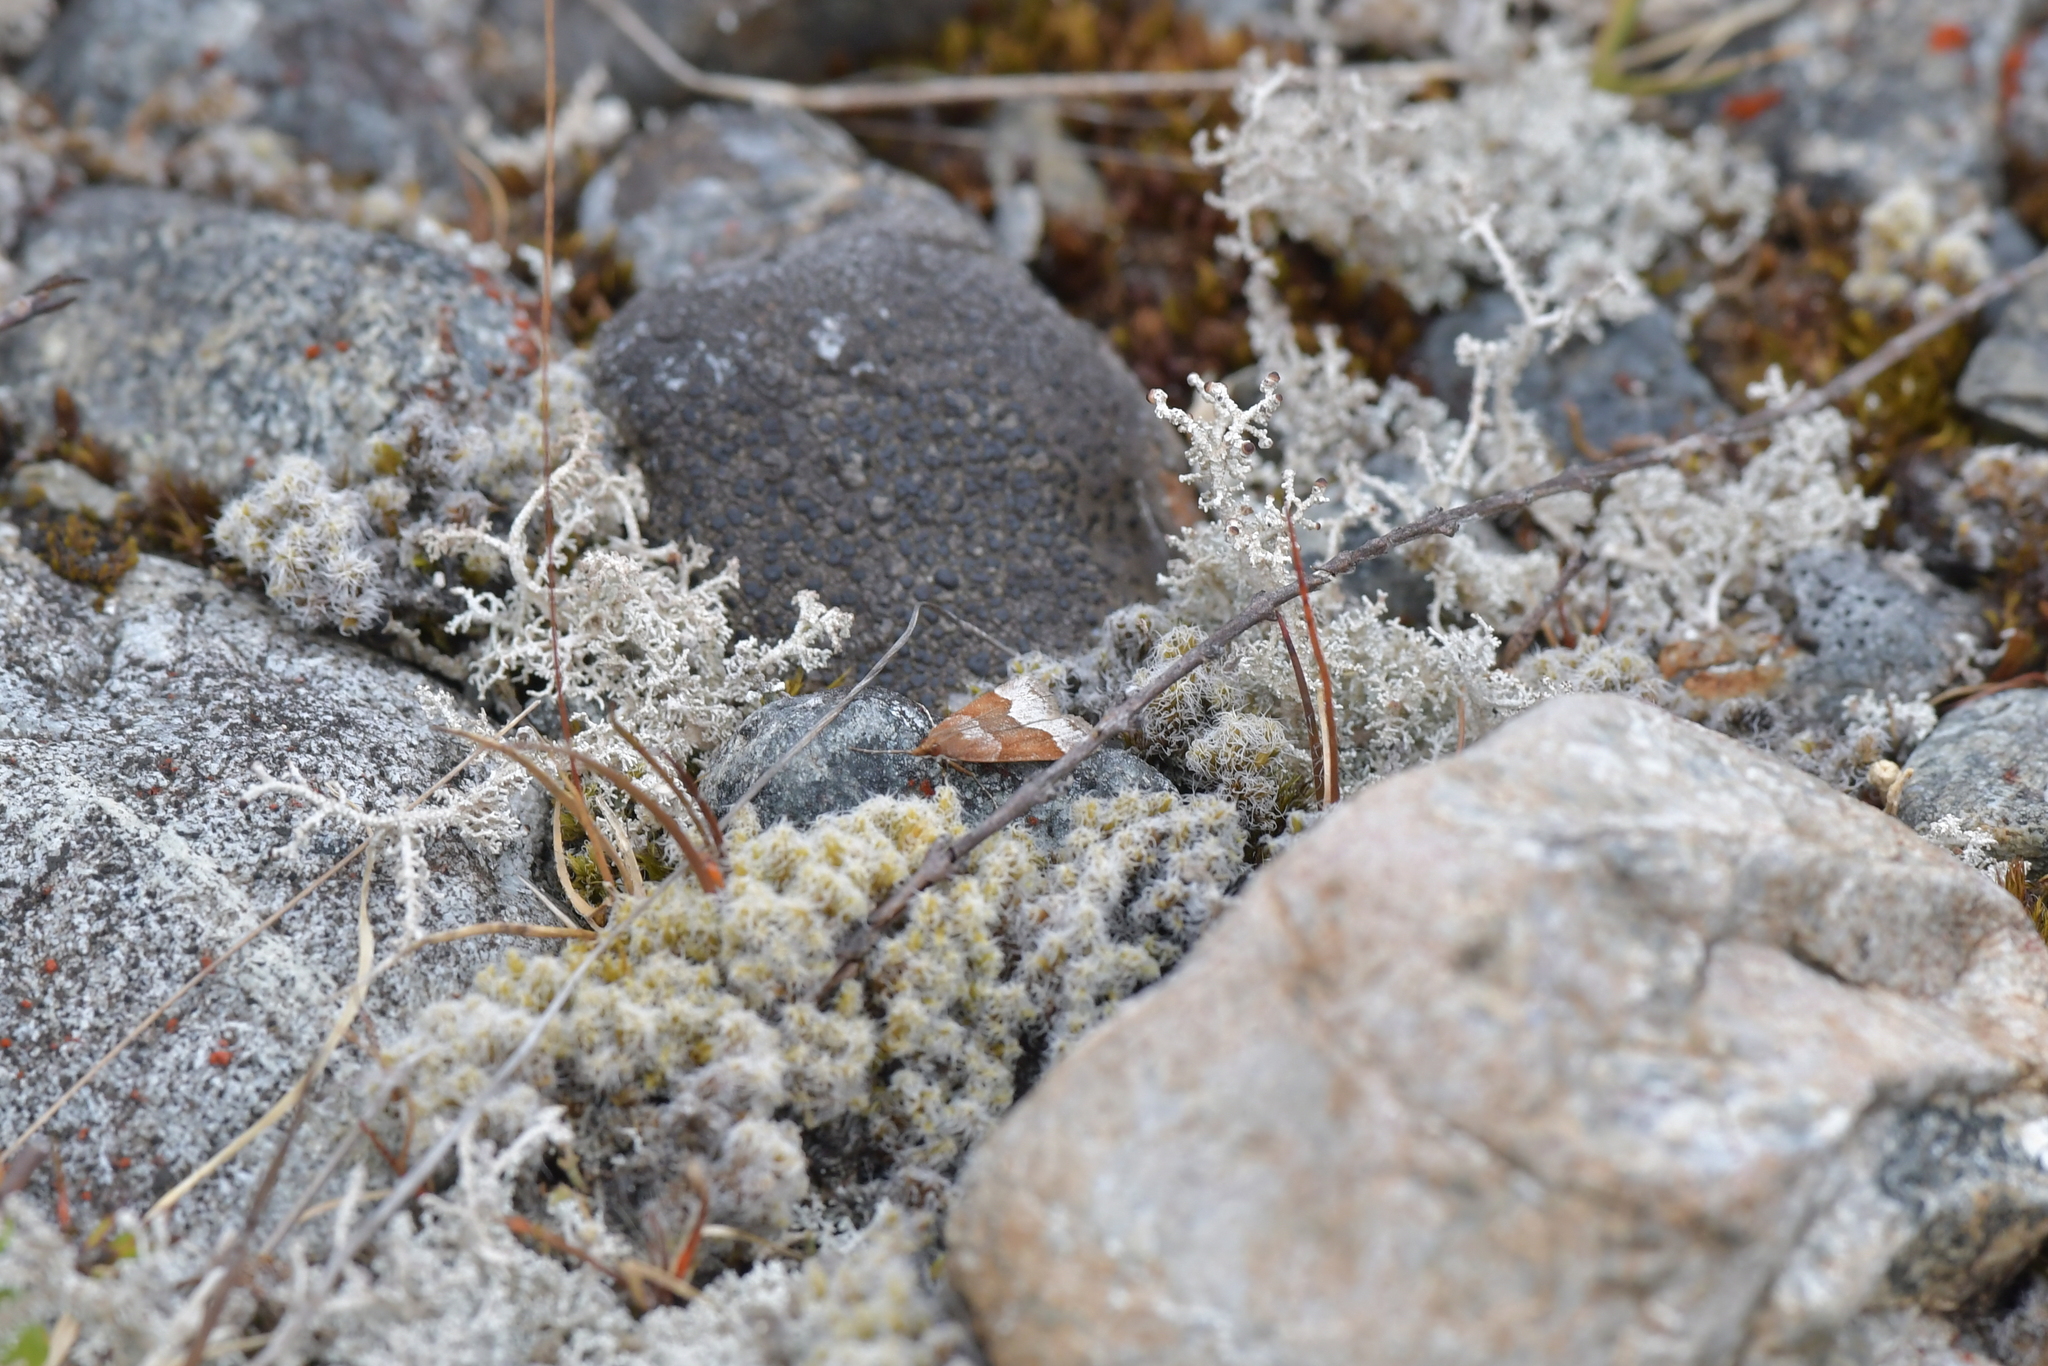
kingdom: Animalia
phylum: Arthropoda
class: Insecta
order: Lepidoptera
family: Crambidae
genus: Eudonia
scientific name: Eudonia feredayi
